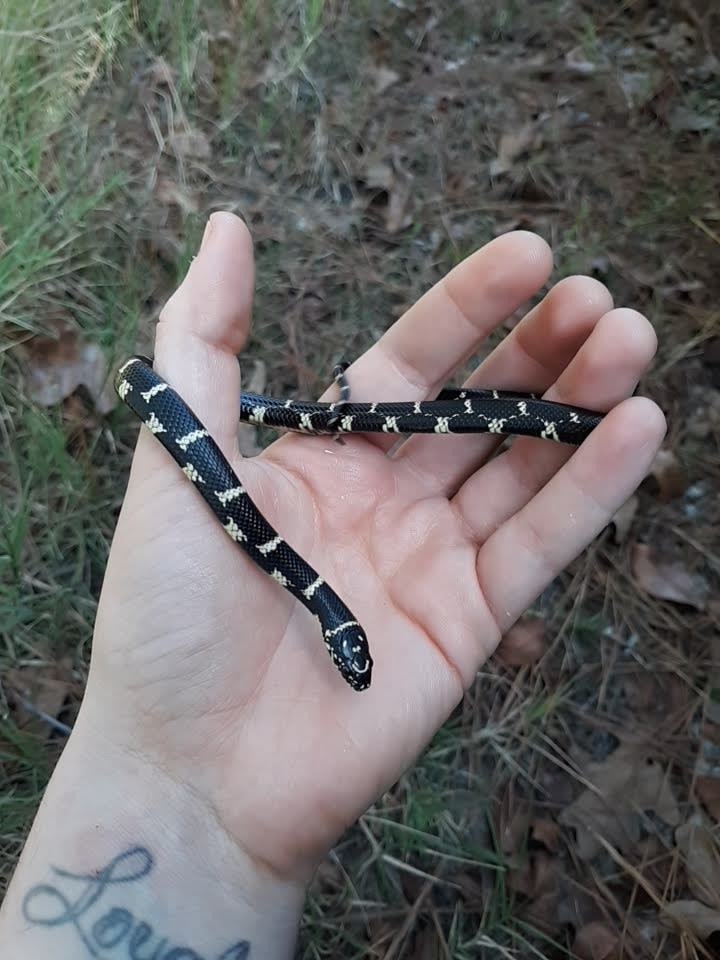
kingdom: Animalia
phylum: Chordata
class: Squamata
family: Colubridae
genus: Lampropeltis
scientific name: Lampropeltis getula
